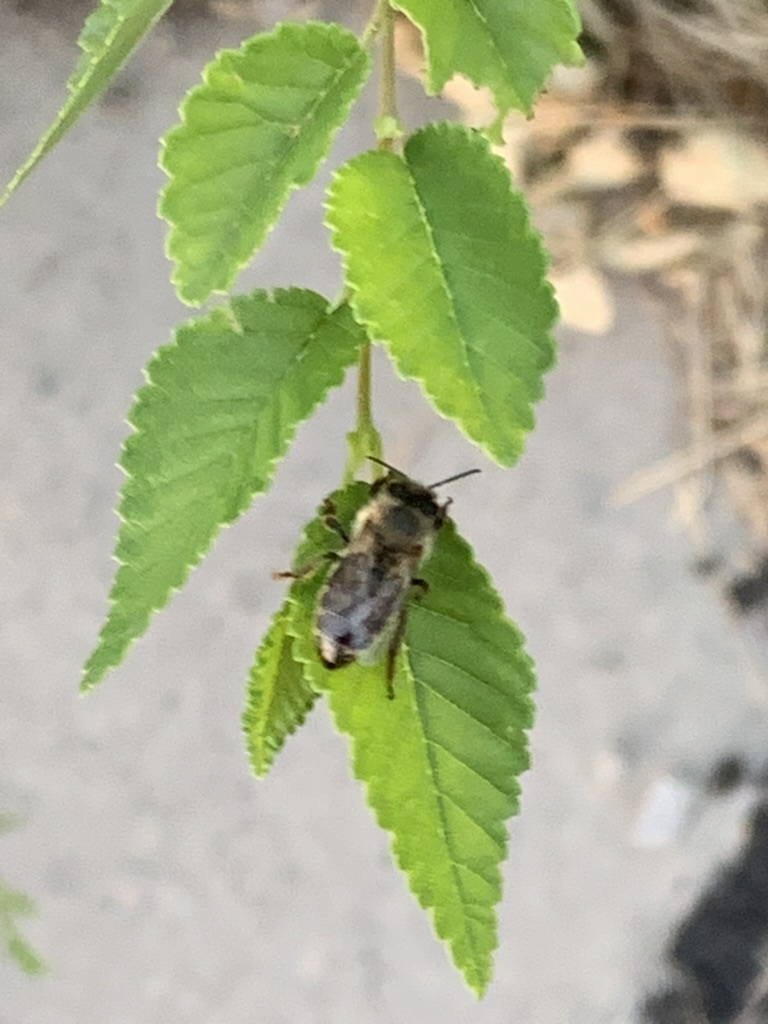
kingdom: Animalia
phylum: Arthropoda
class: Insecta
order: Hymenoptera
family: Apidae
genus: Apis
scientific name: Apis mellifera
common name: Honey bee
